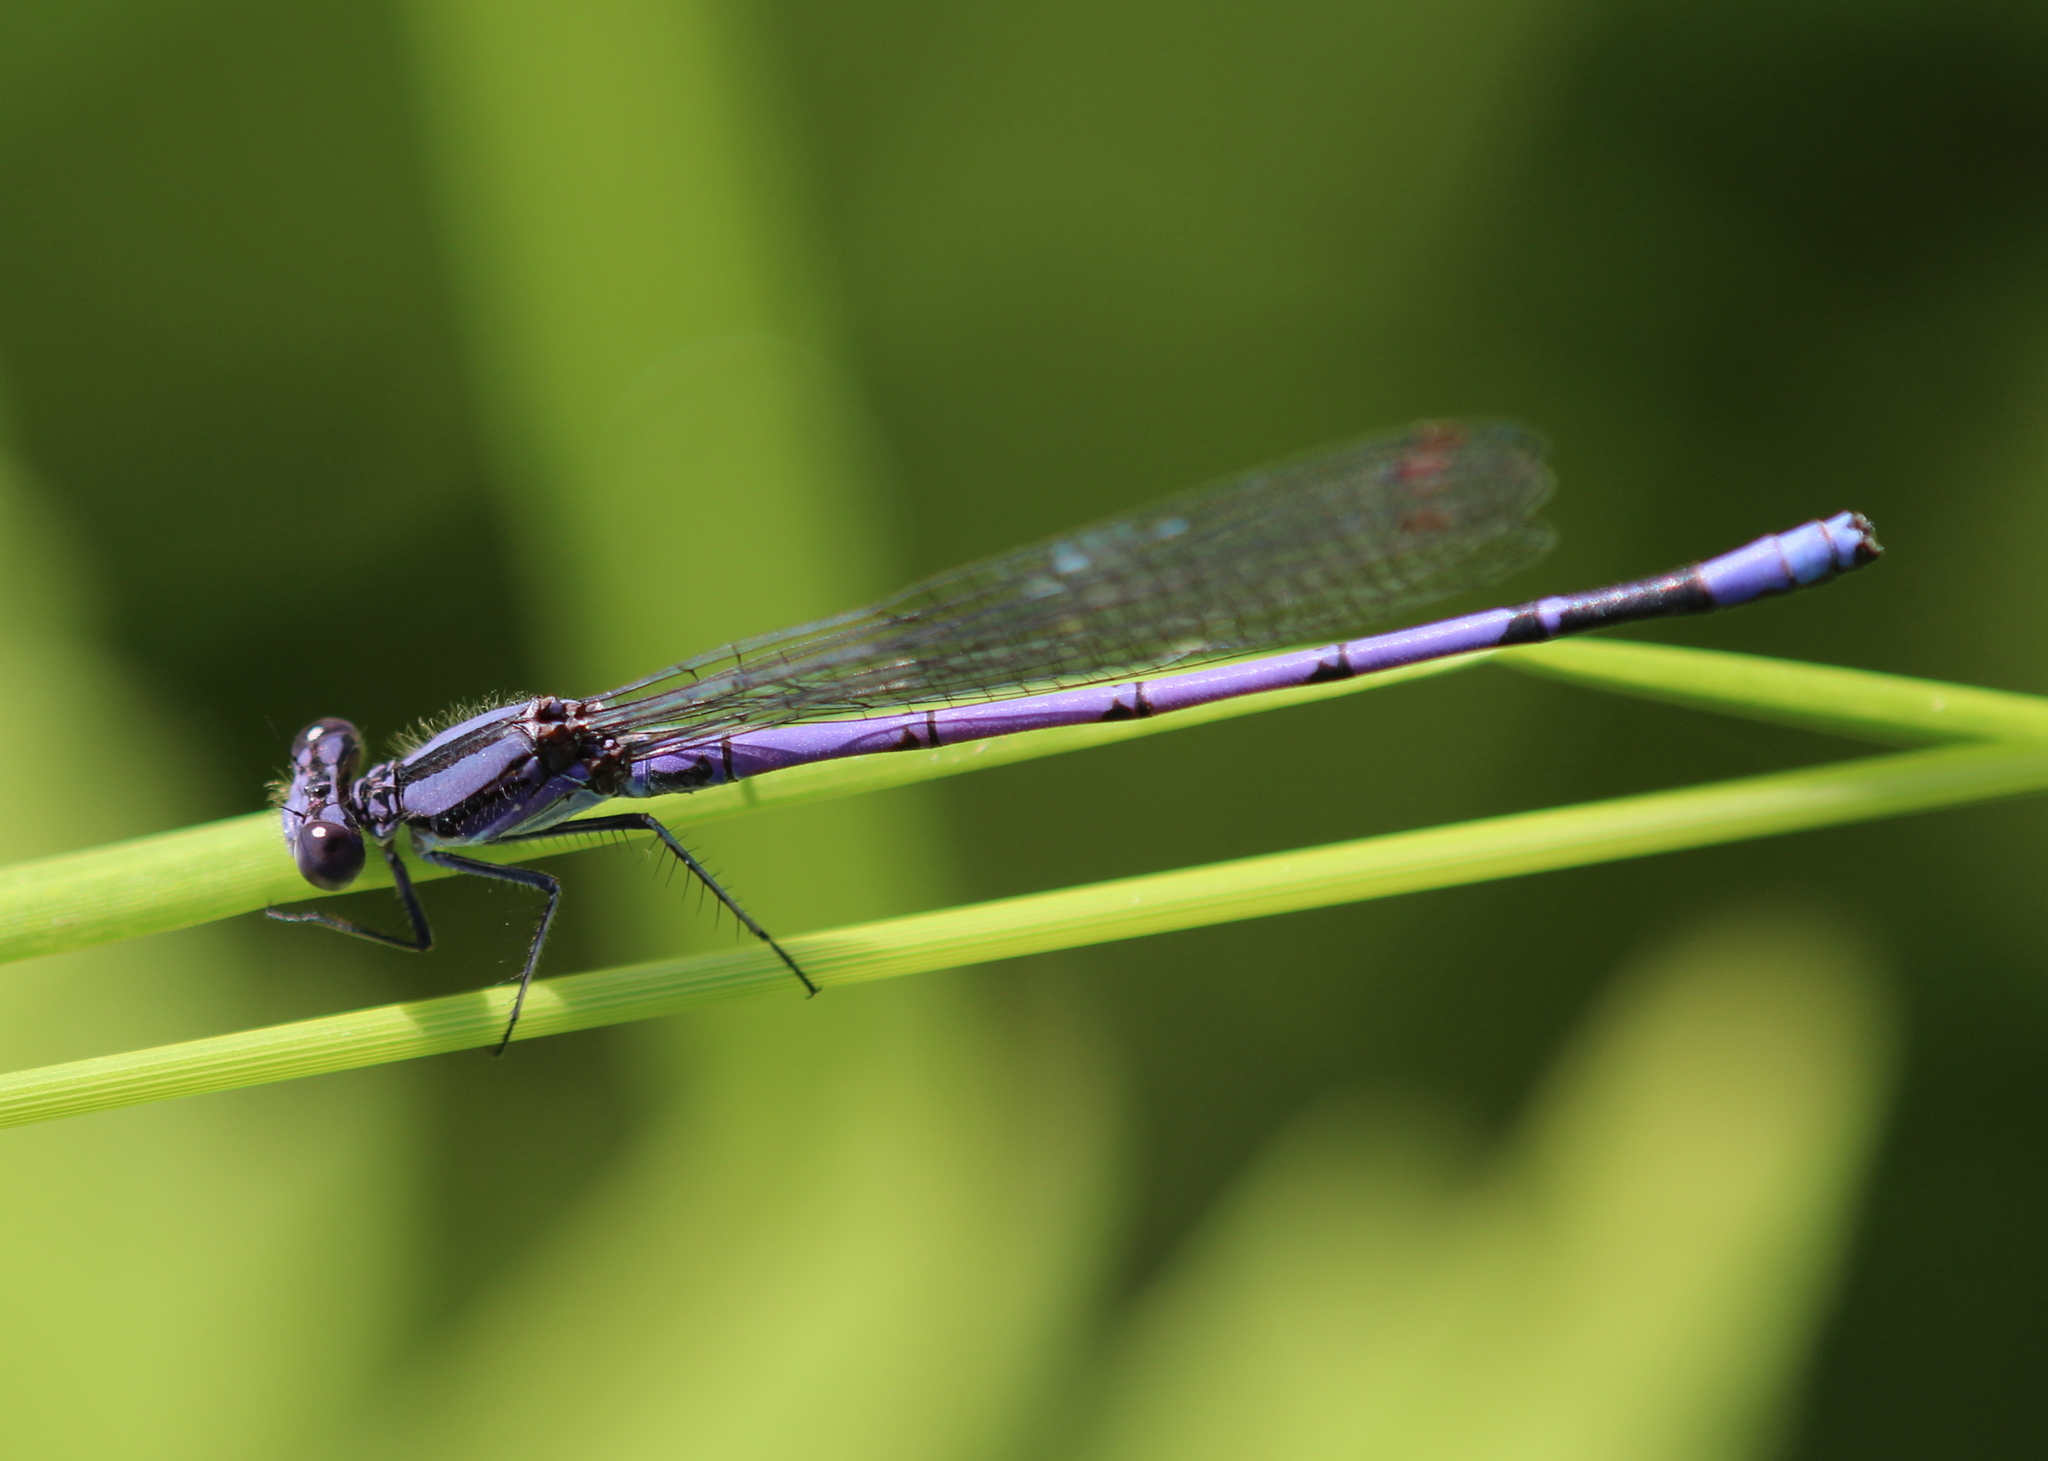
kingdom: Animalia
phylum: Arthropoda
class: Insecta
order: Odonata
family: Coenagrionidae
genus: Argia
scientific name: Argia fumipennis
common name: Variable dancer
